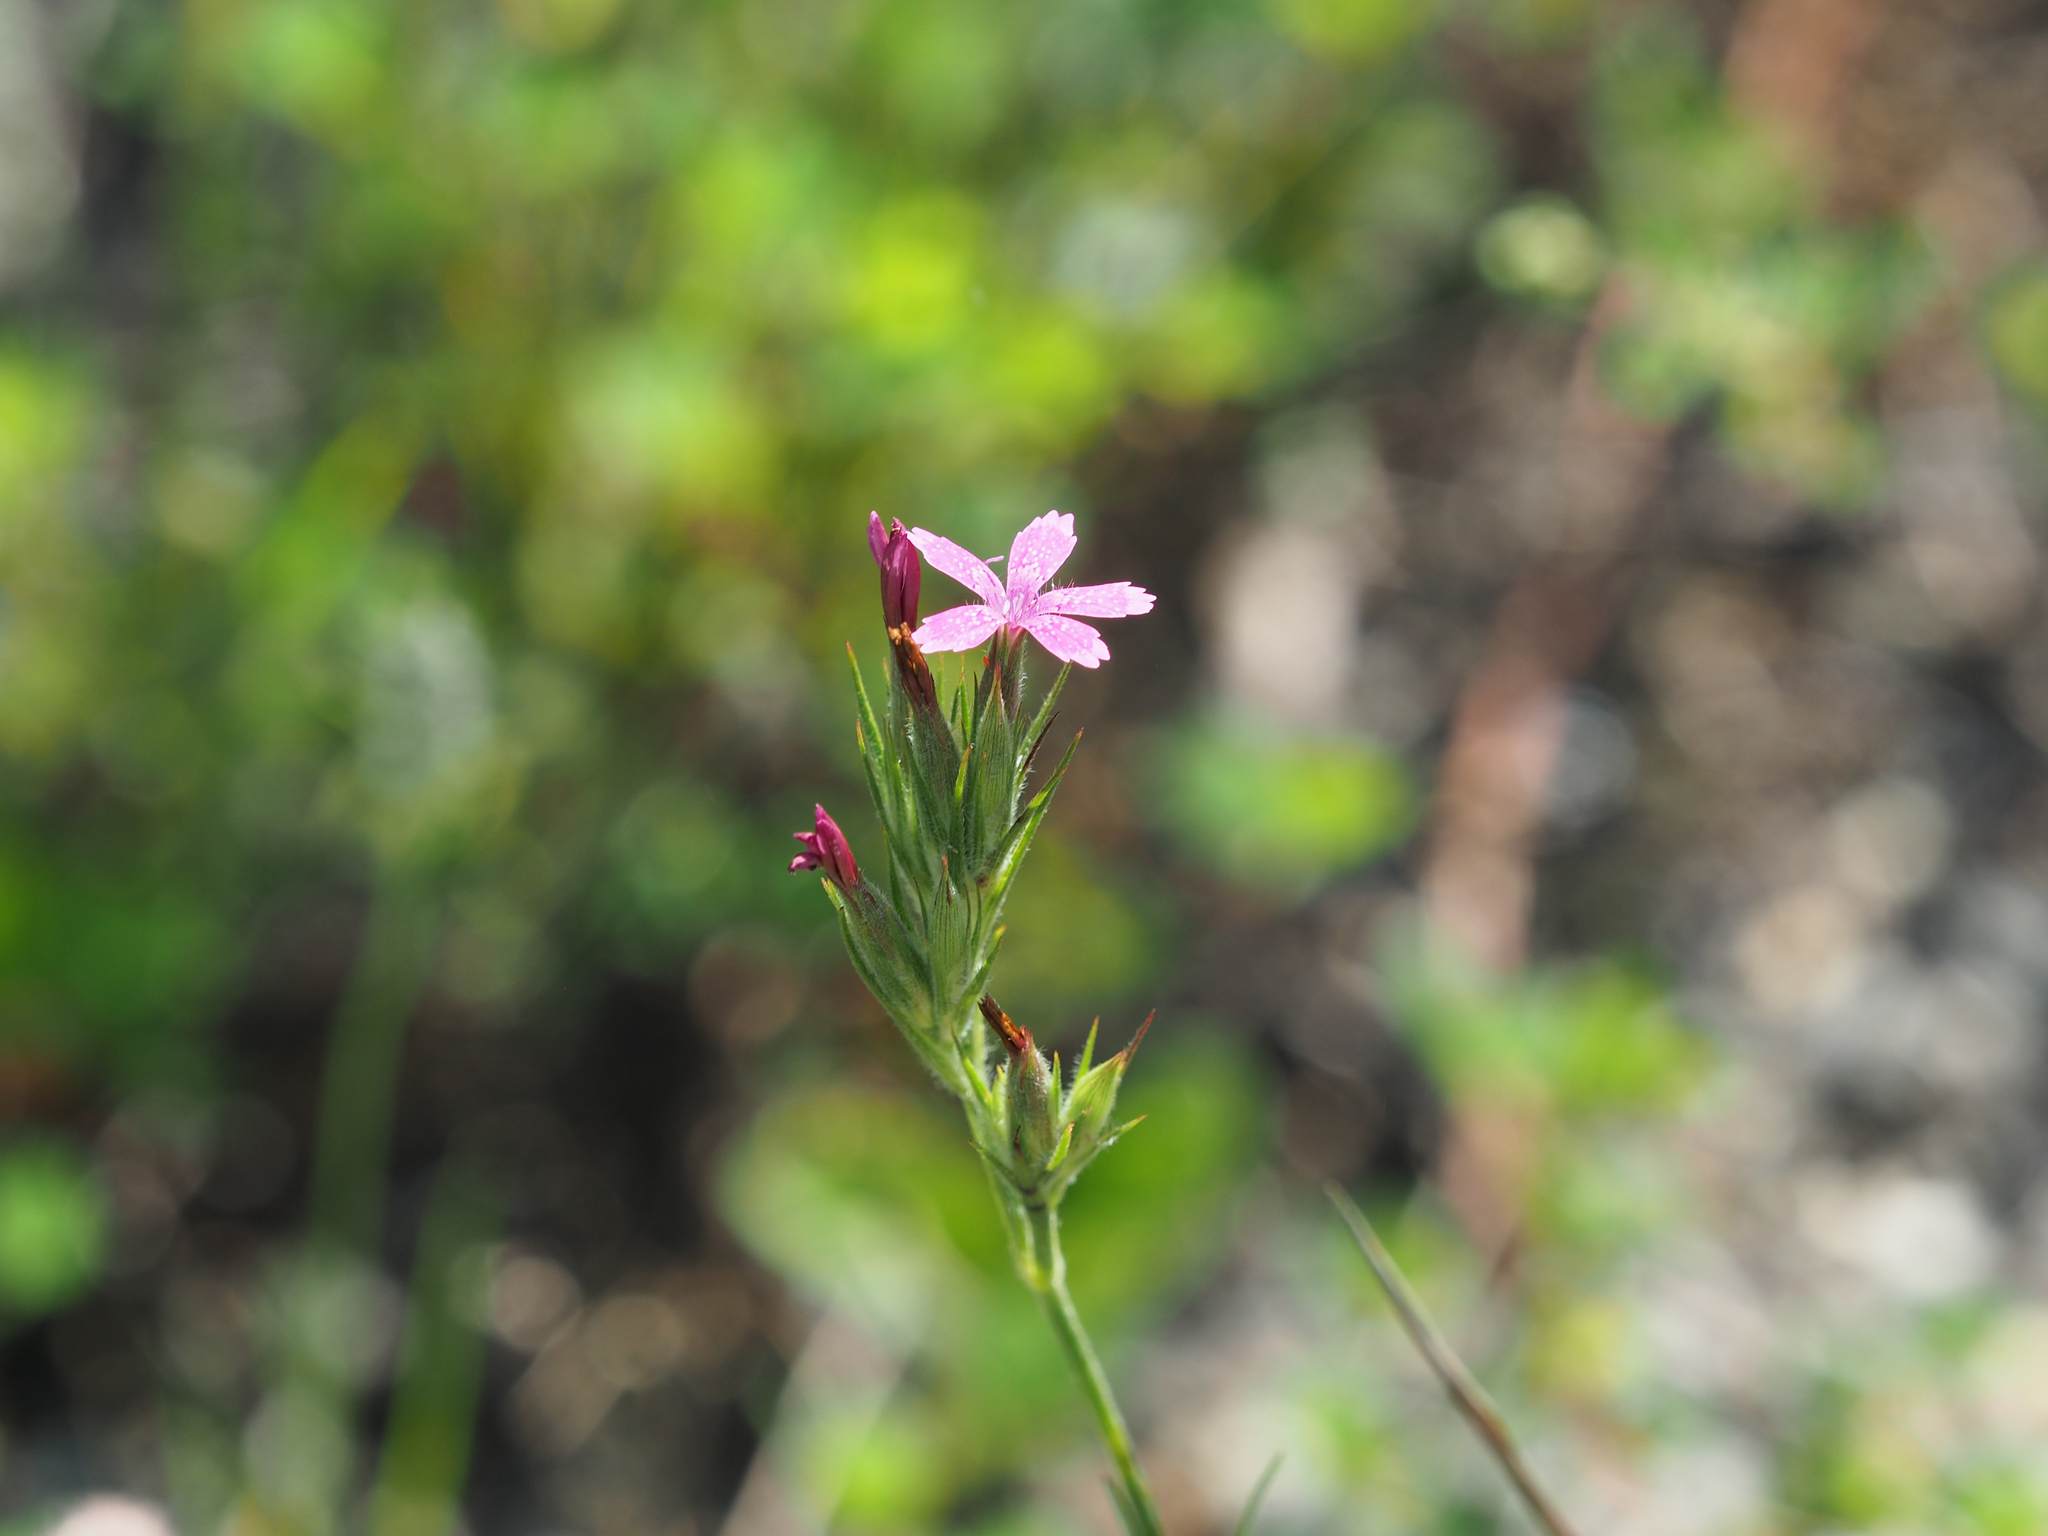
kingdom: Plantae
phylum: Tracheophyta
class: Magnoliopsida
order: Caryophyllales
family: Caryophyllaceae
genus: Dianthus
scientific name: Dianthus armeria
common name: Deptford pink
